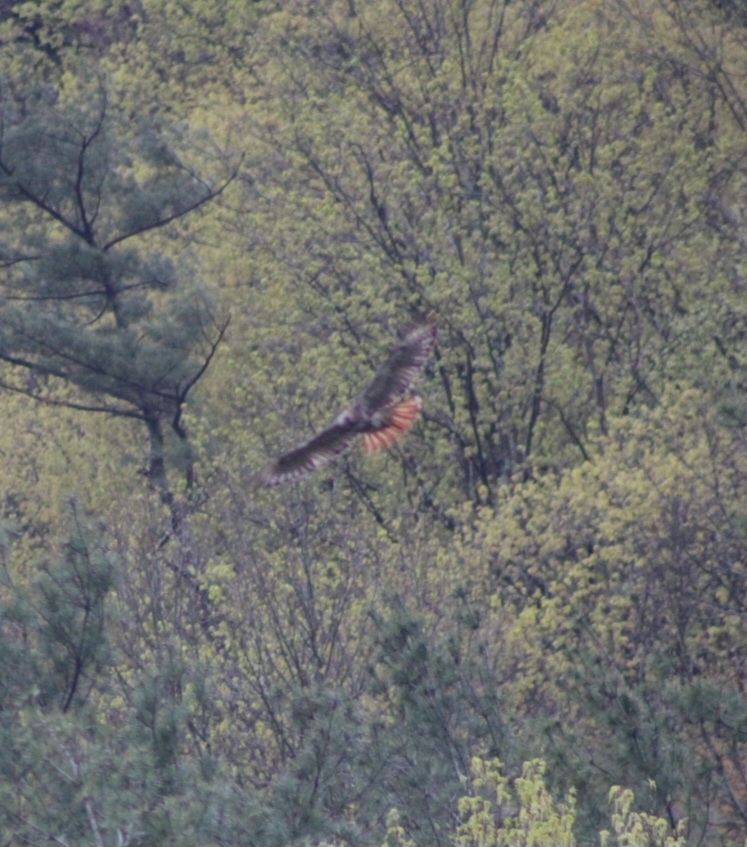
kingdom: Animalia
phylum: Chordata
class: Aves
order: Accipitriformes
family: Accipitridae
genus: Buteo
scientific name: Buteo jamaicensis
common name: Red-tailed hawk
